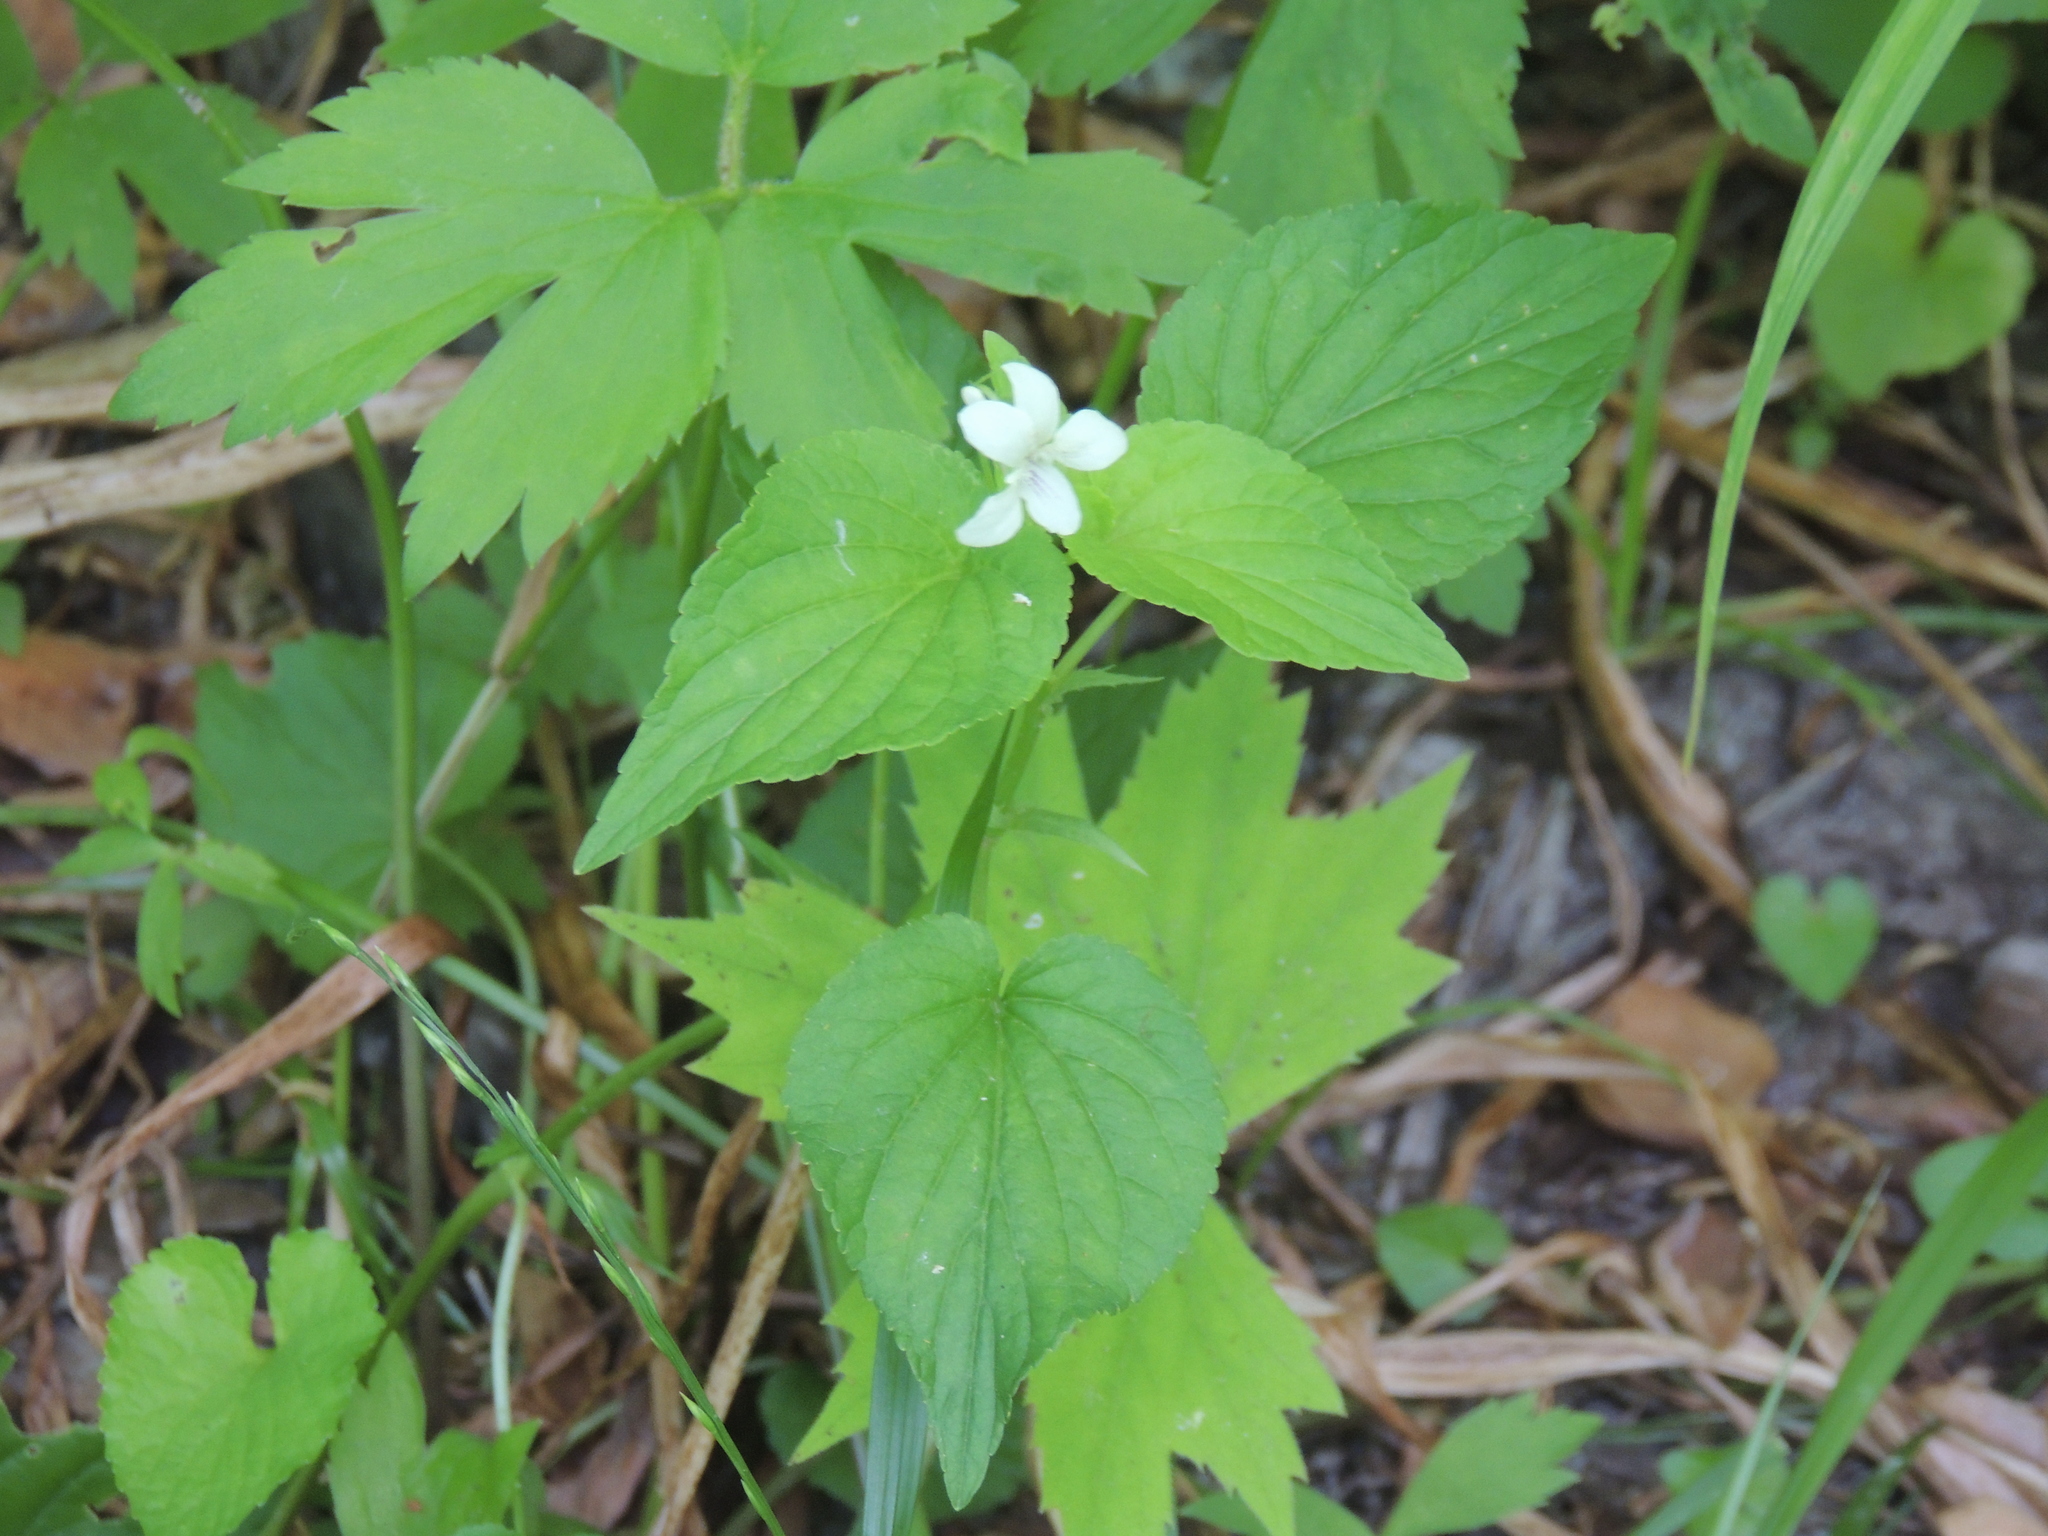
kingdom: Plantae
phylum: Tracheophyta
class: Magnoliopsida
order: Malpighiales
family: Violaceae
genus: Viola
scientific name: Viola striata
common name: Cream violet
